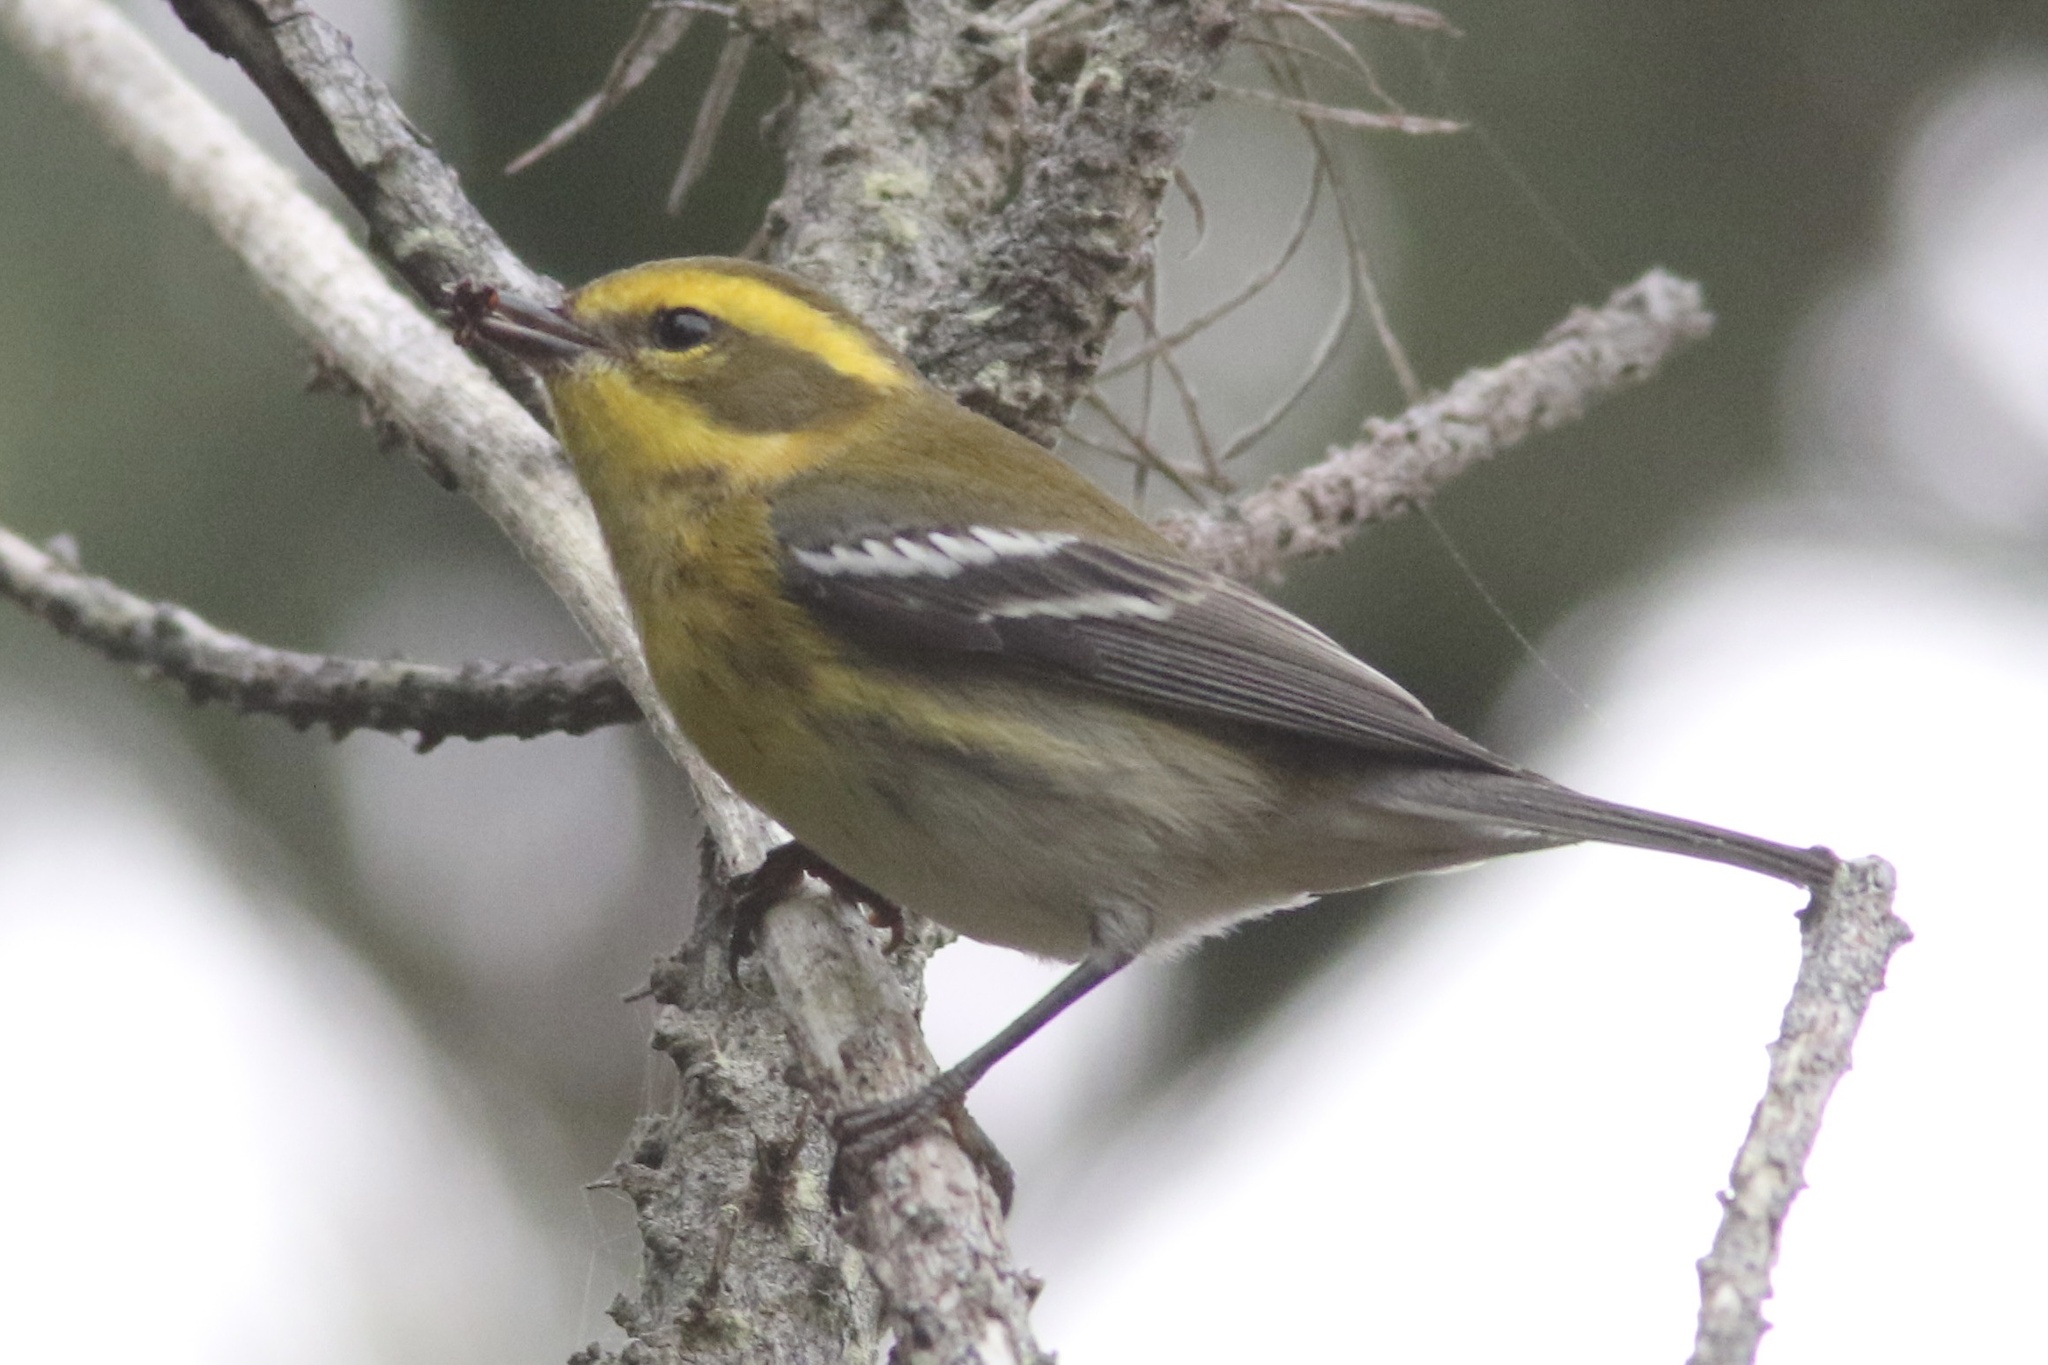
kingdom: Animalia
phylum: Chordata
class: Aves
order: Passeriformes
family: Parulidae
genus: Setophaga
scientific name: Setophaga townsendi
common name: Townsend's warbler
